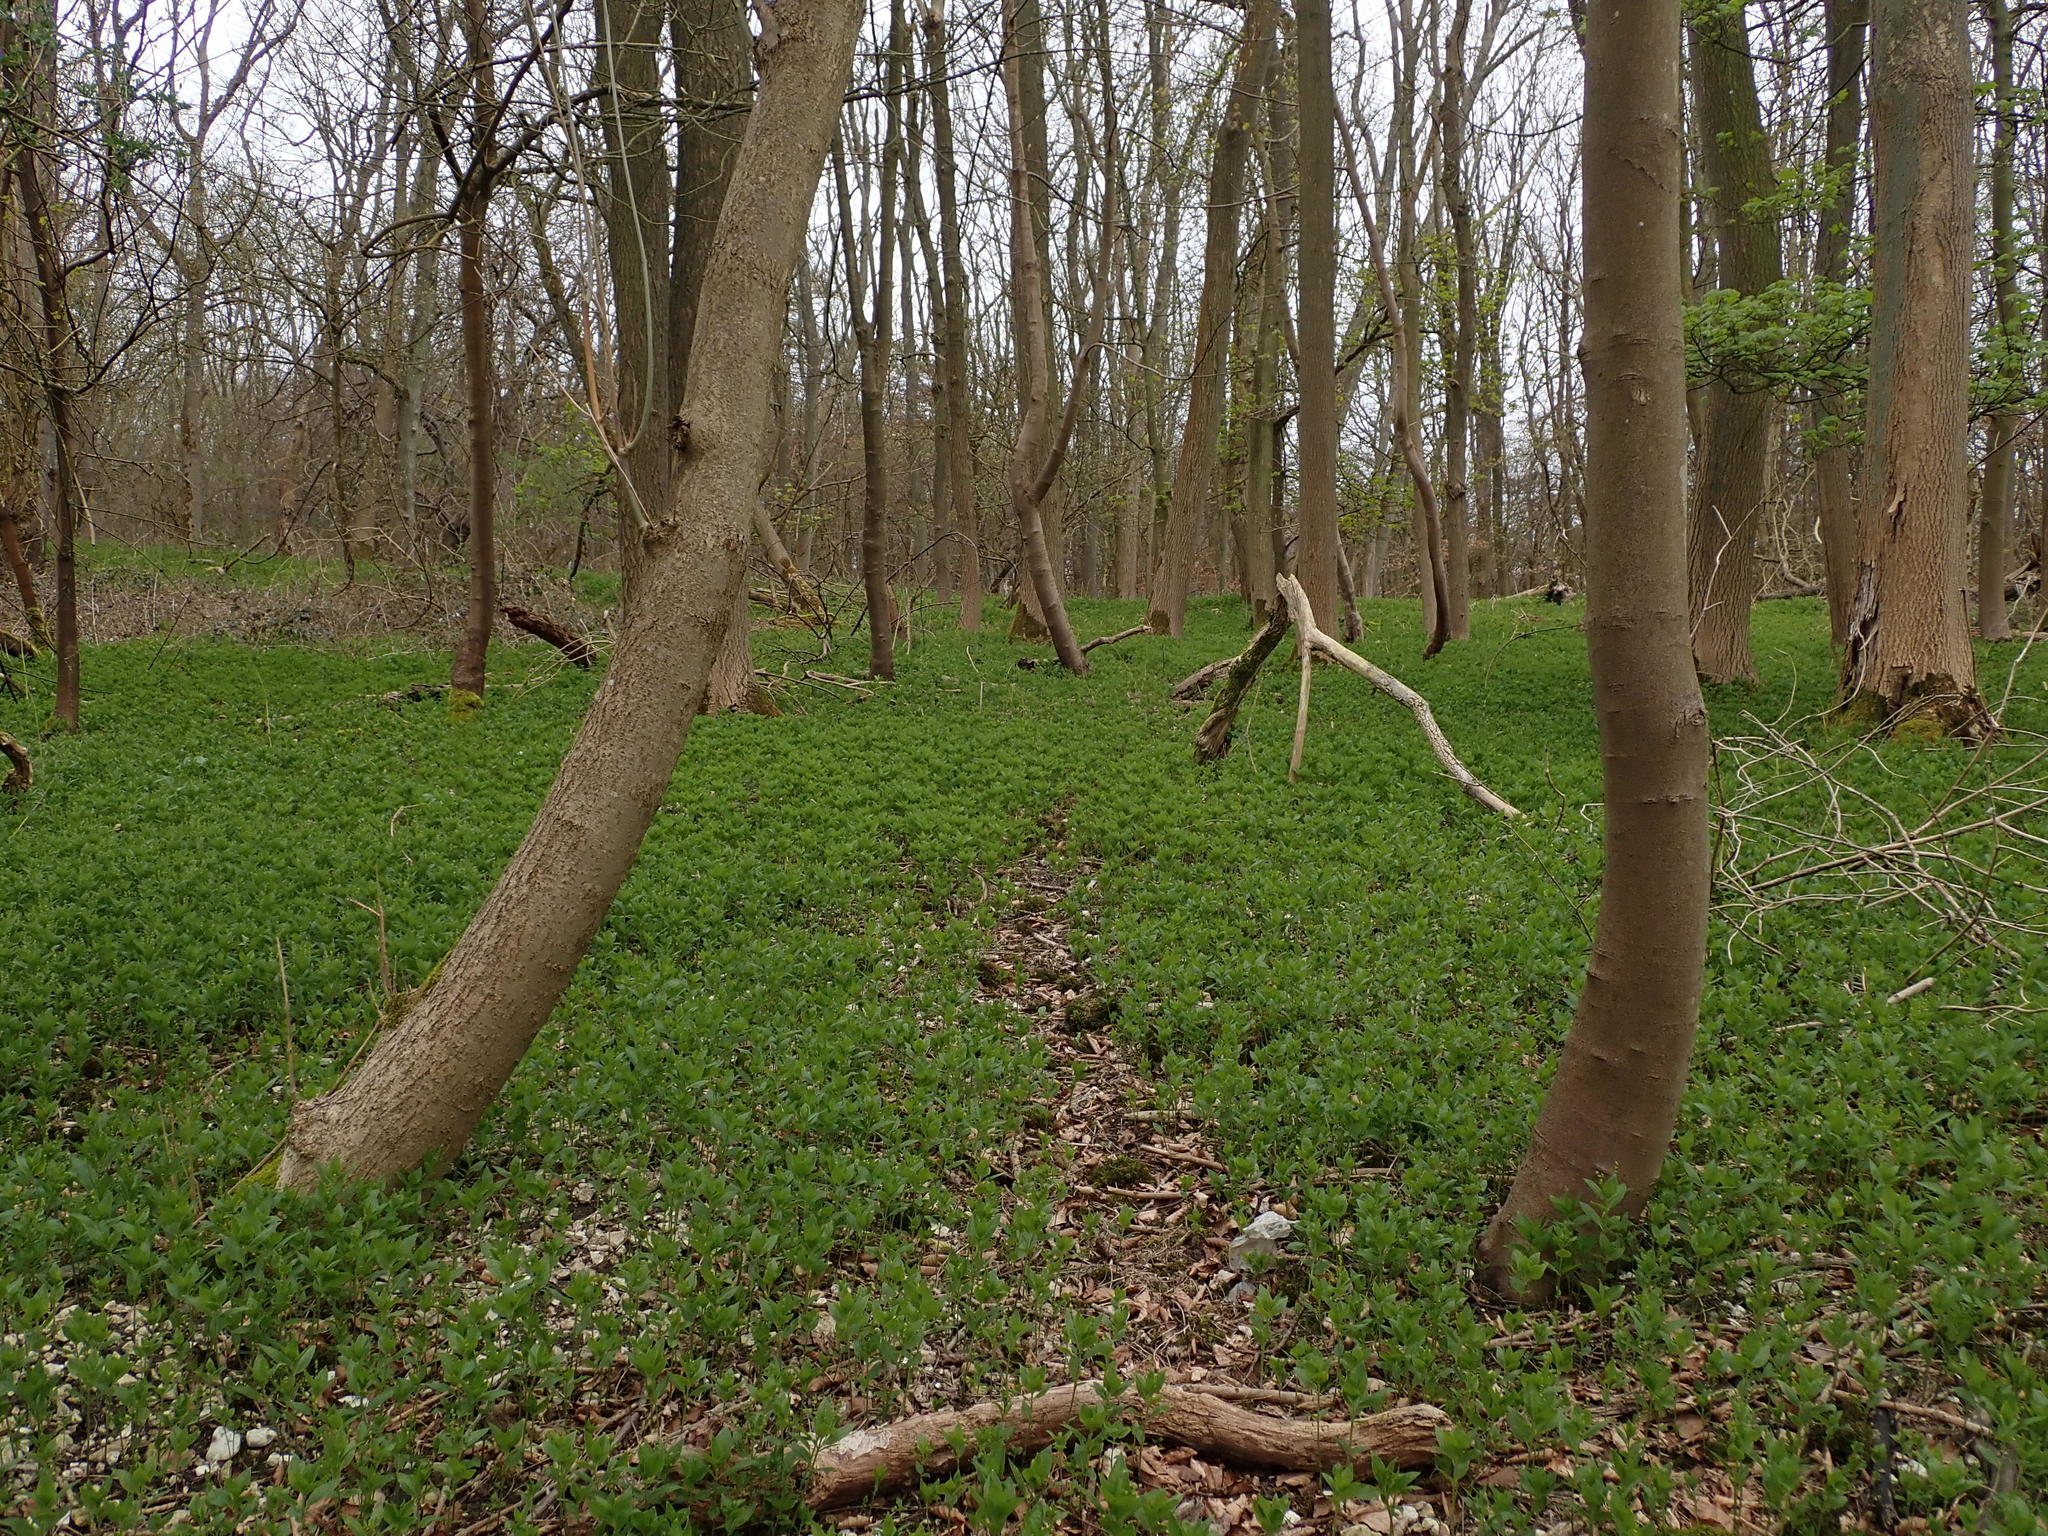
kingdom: Plantae
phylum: Tracheophyta
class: Magnoliopsida
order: Malpighiales
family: Euphorbiaceae
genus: Mercurialis
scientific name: Mercurialis perennis
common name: Dog mercury
